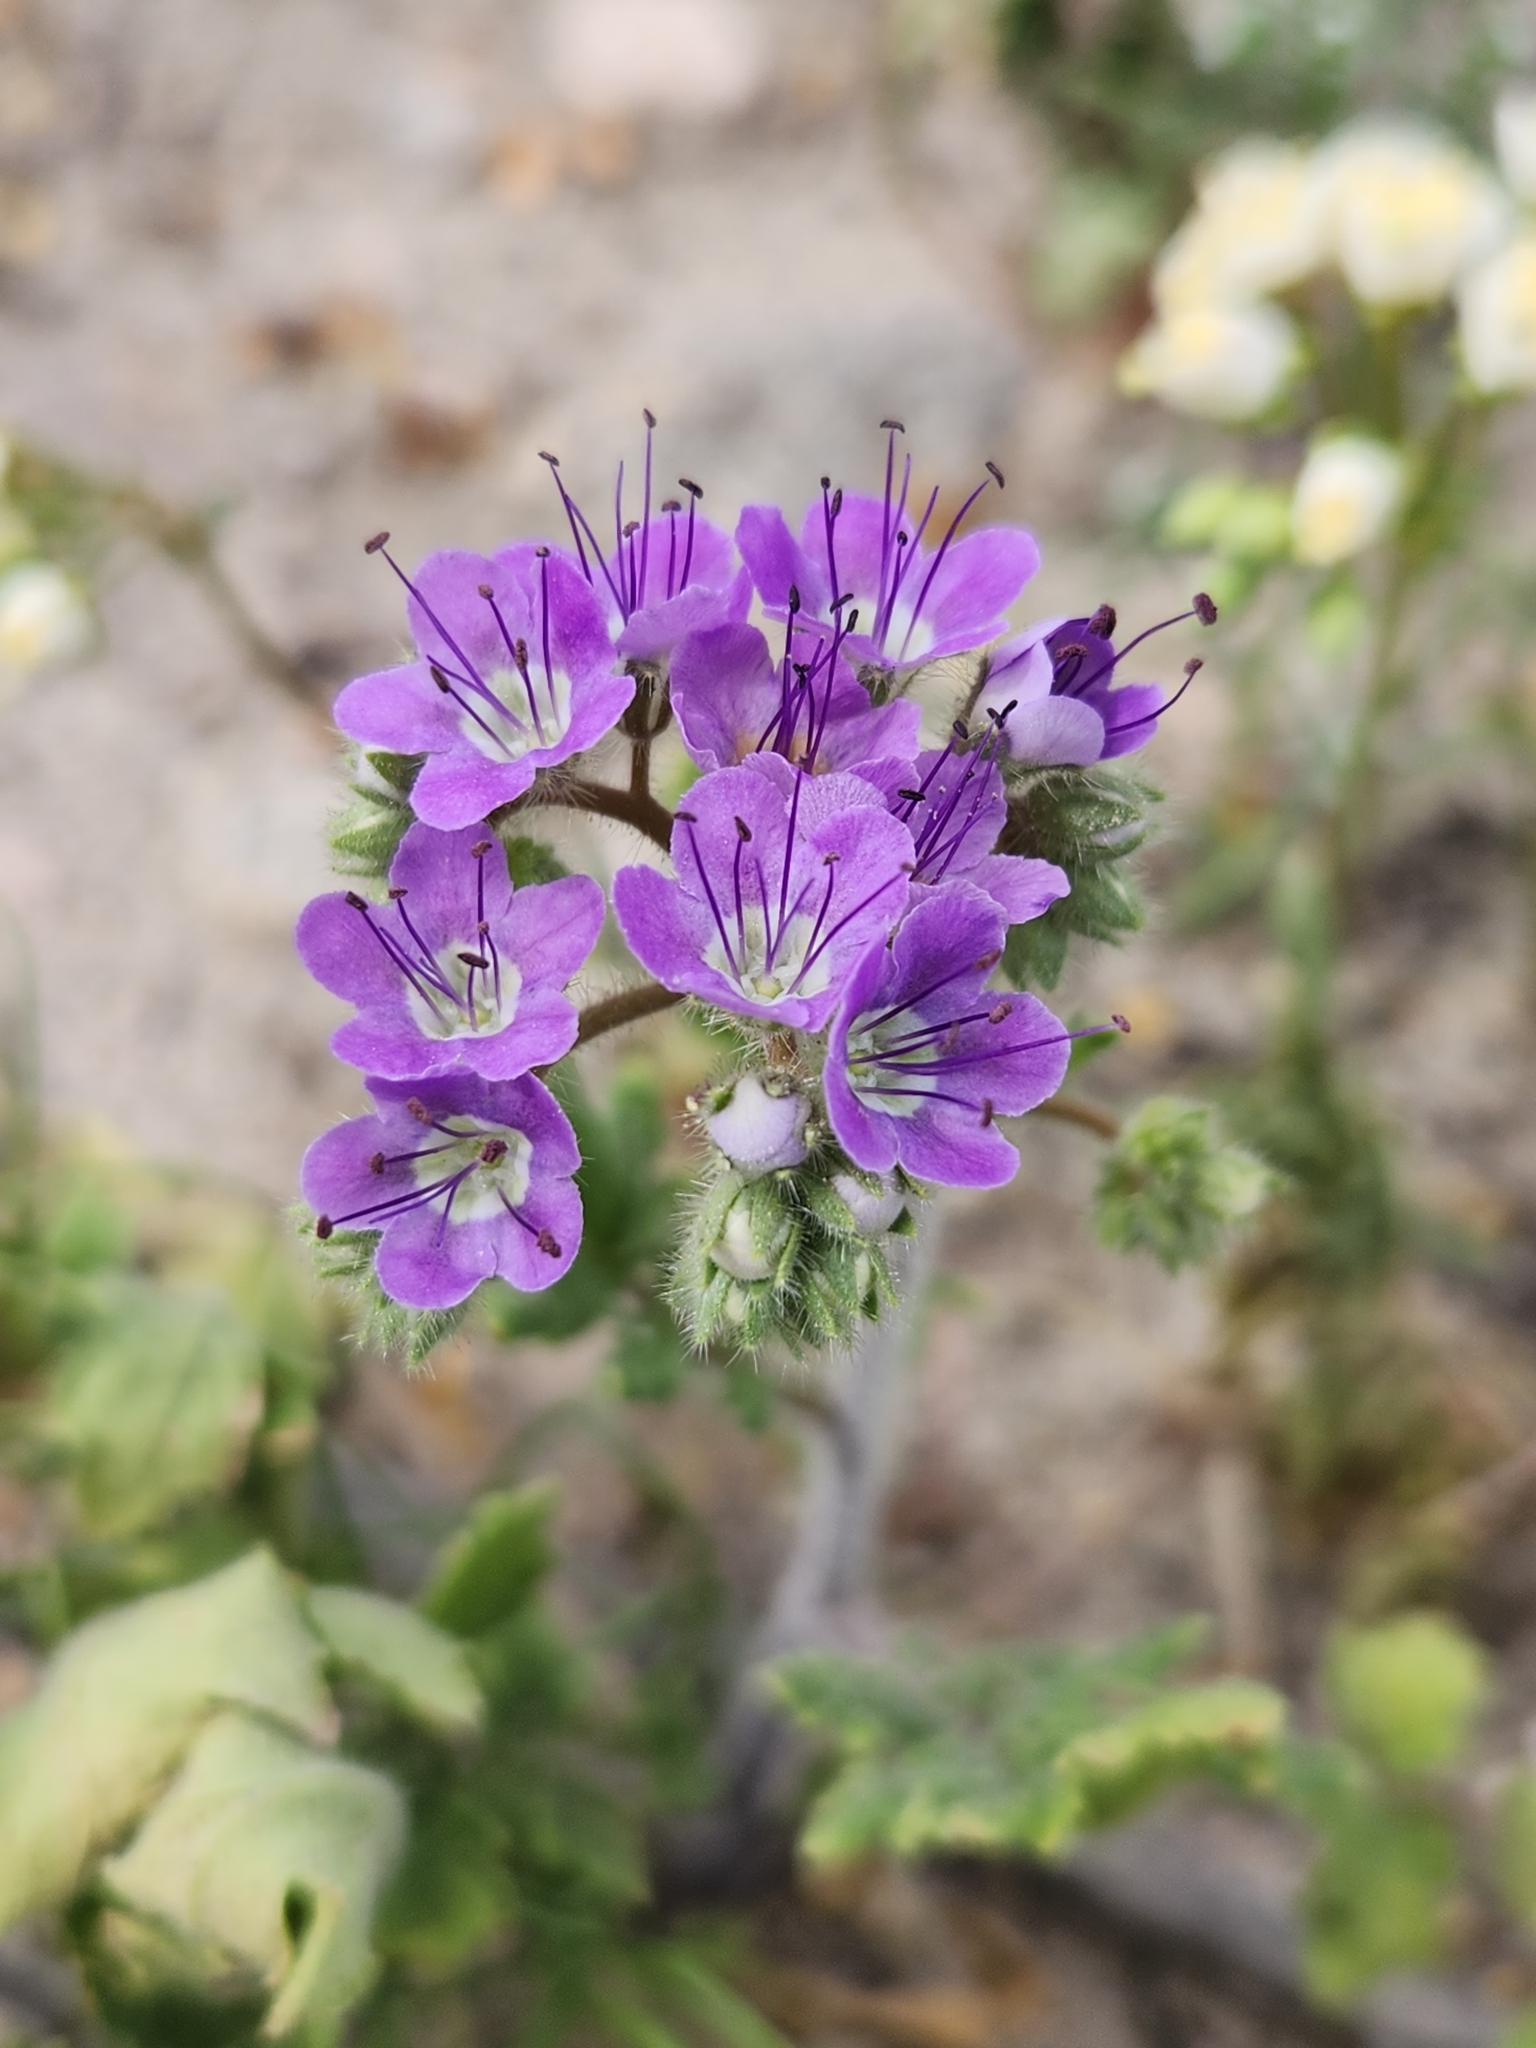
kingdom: Plantae
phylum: Tracheophyta
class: Magnoliopsida
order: Boraginales
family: Hydrophyllaceae
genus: Phacelia
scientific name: Phacelia crenulata
